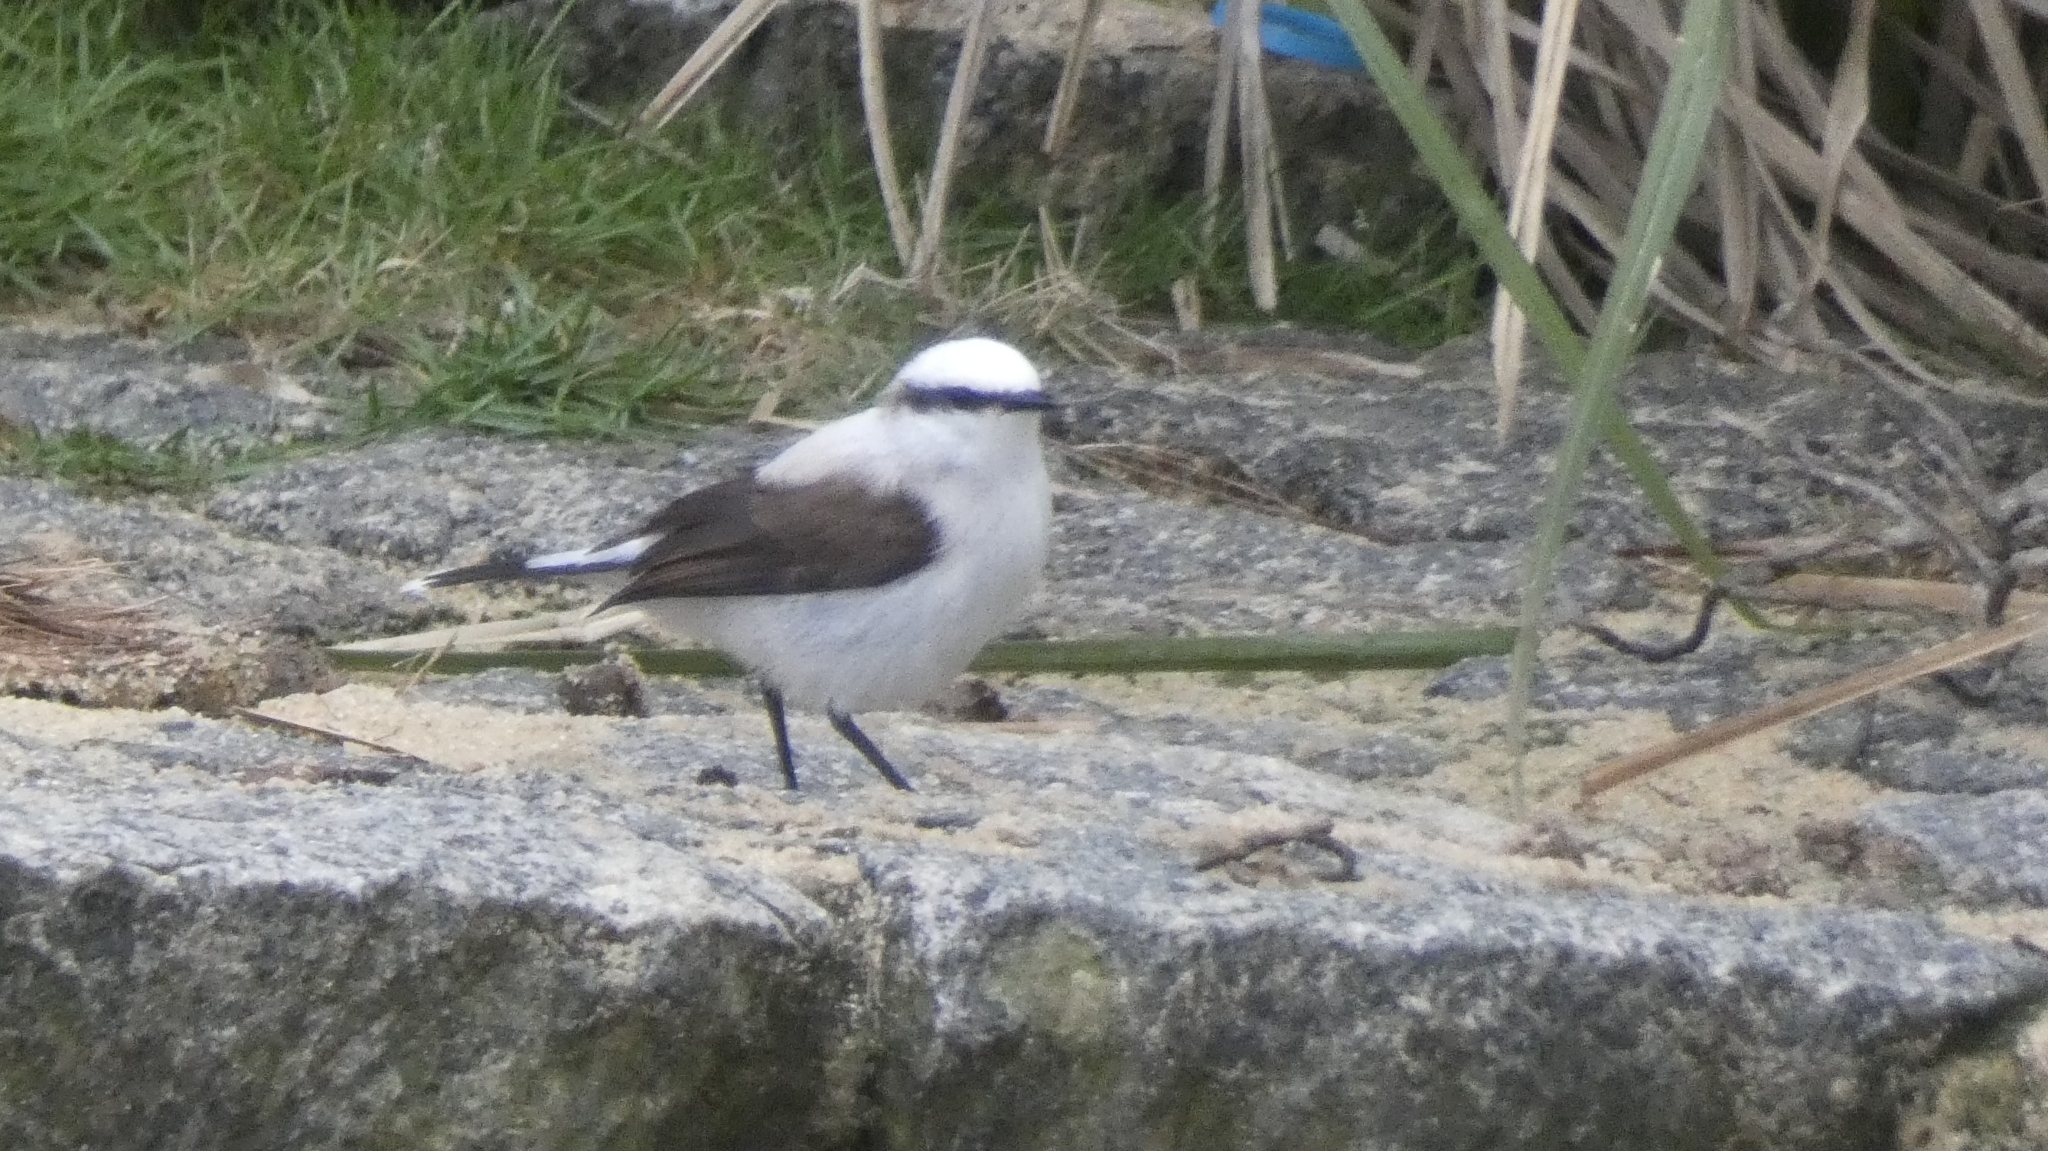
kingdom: Animalia
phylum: Chordata
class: Aves
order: Passeriformes
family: Tyrannidae
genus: Fluvicola
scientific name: Fluvicola nengeta
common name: Masked water tyrant
